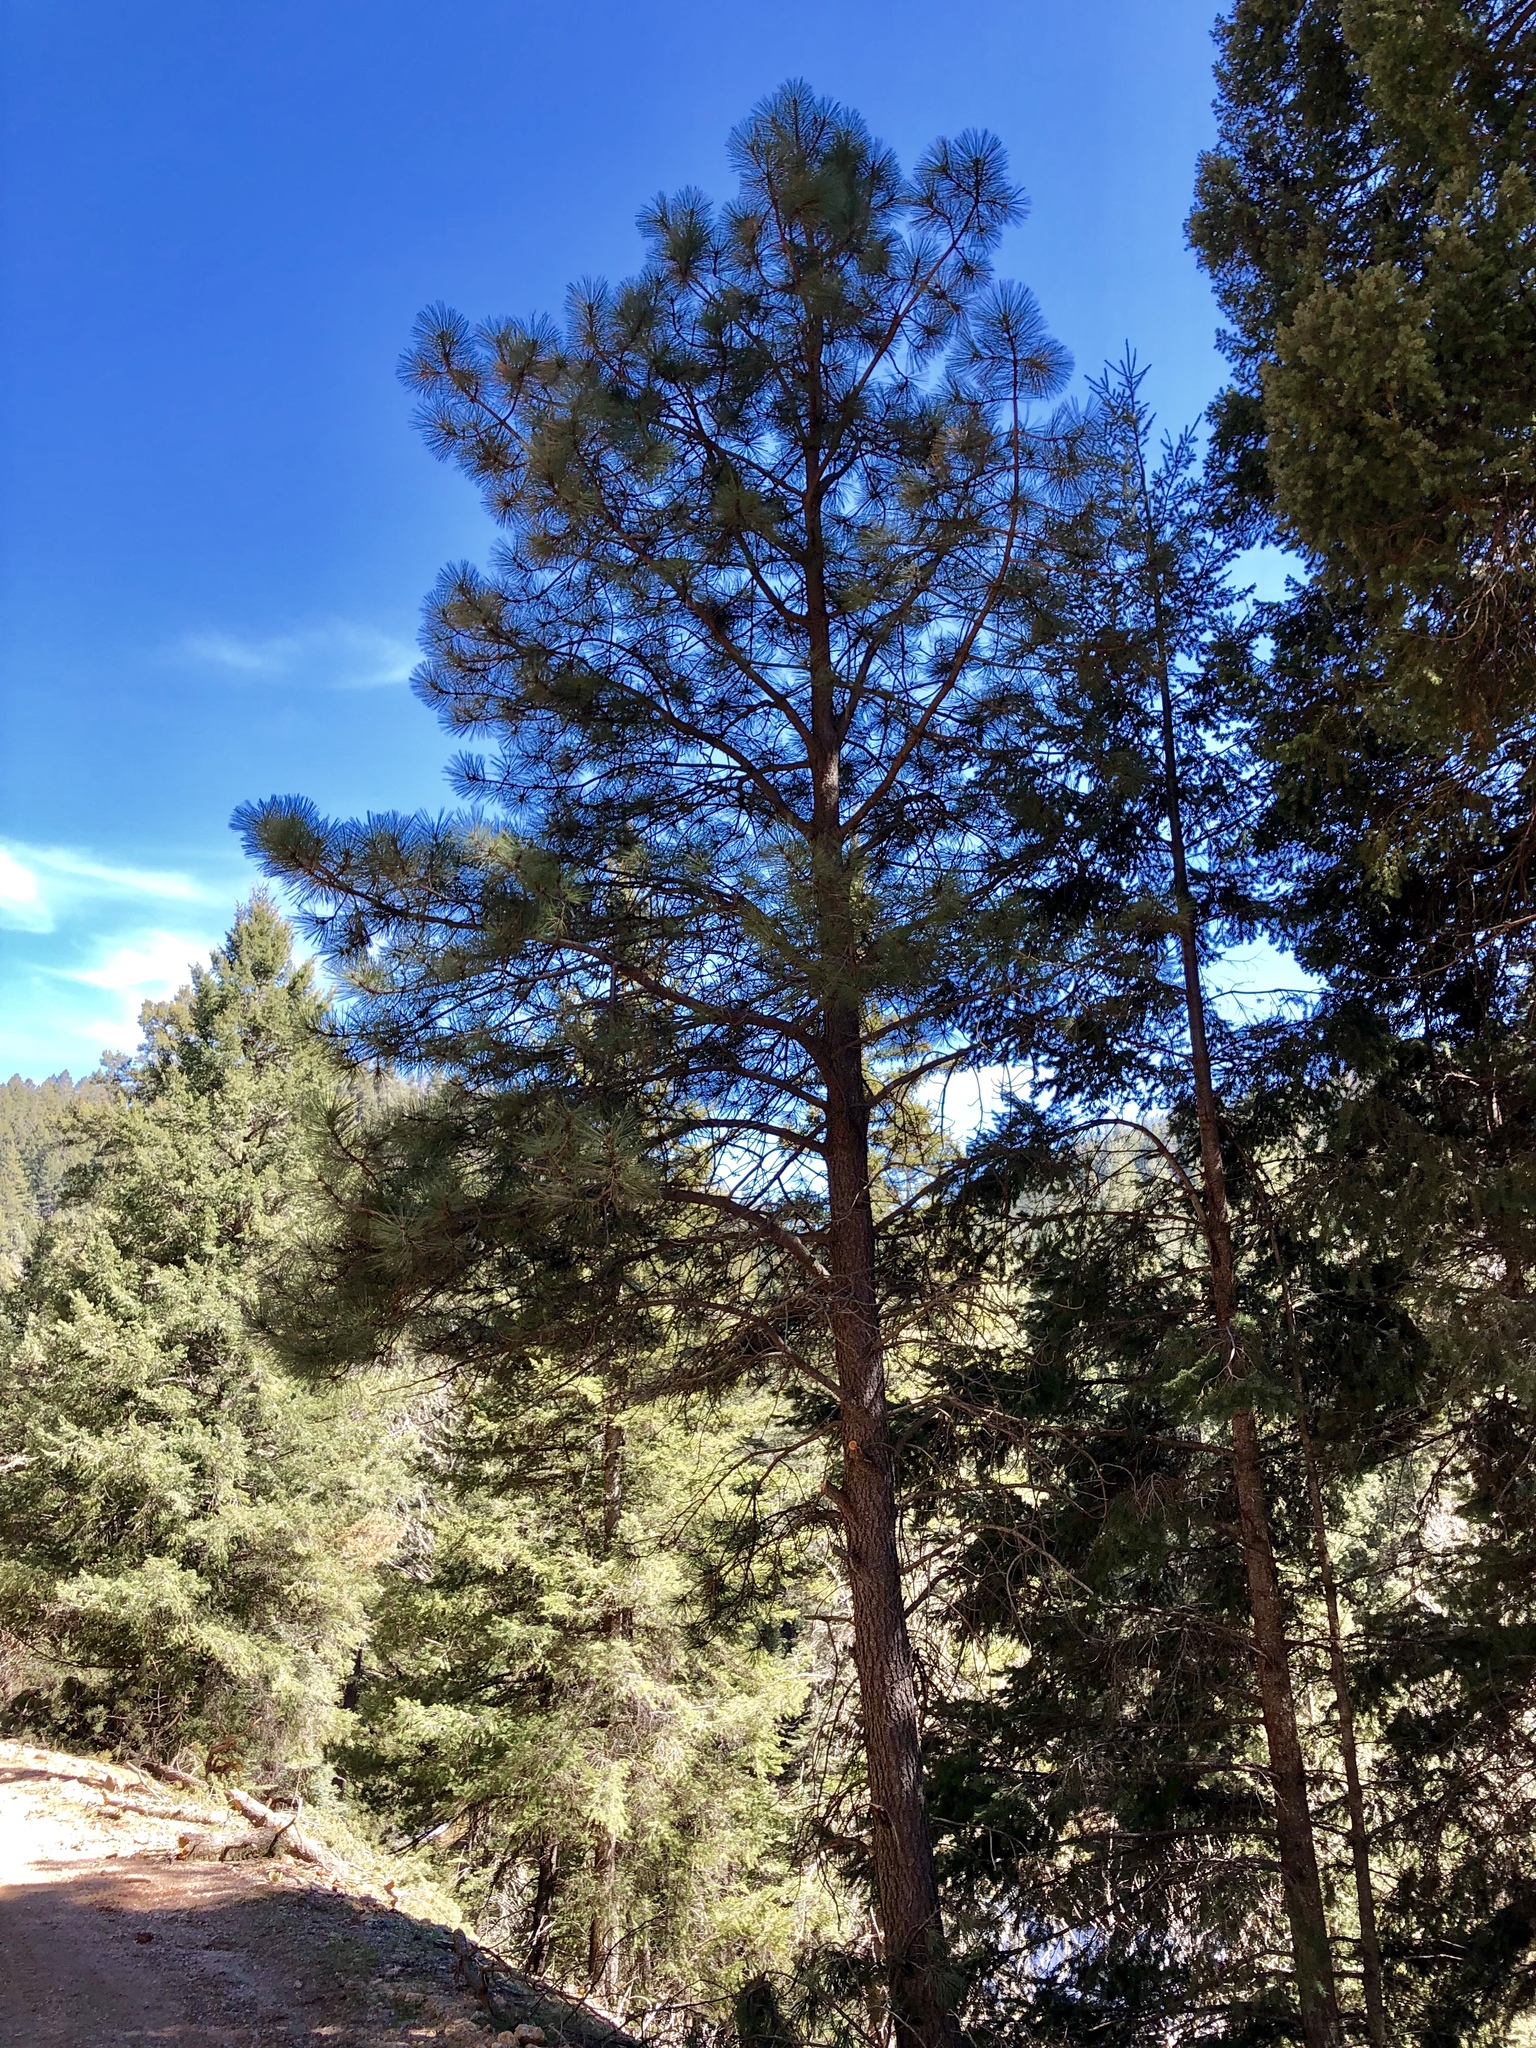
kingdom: Plantae
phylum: Tracheophyta
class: Pinopsida
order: Pinales
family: Pinaceae
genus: Pinus
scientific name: Pinus ponderosa
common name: Western yellow-pine
